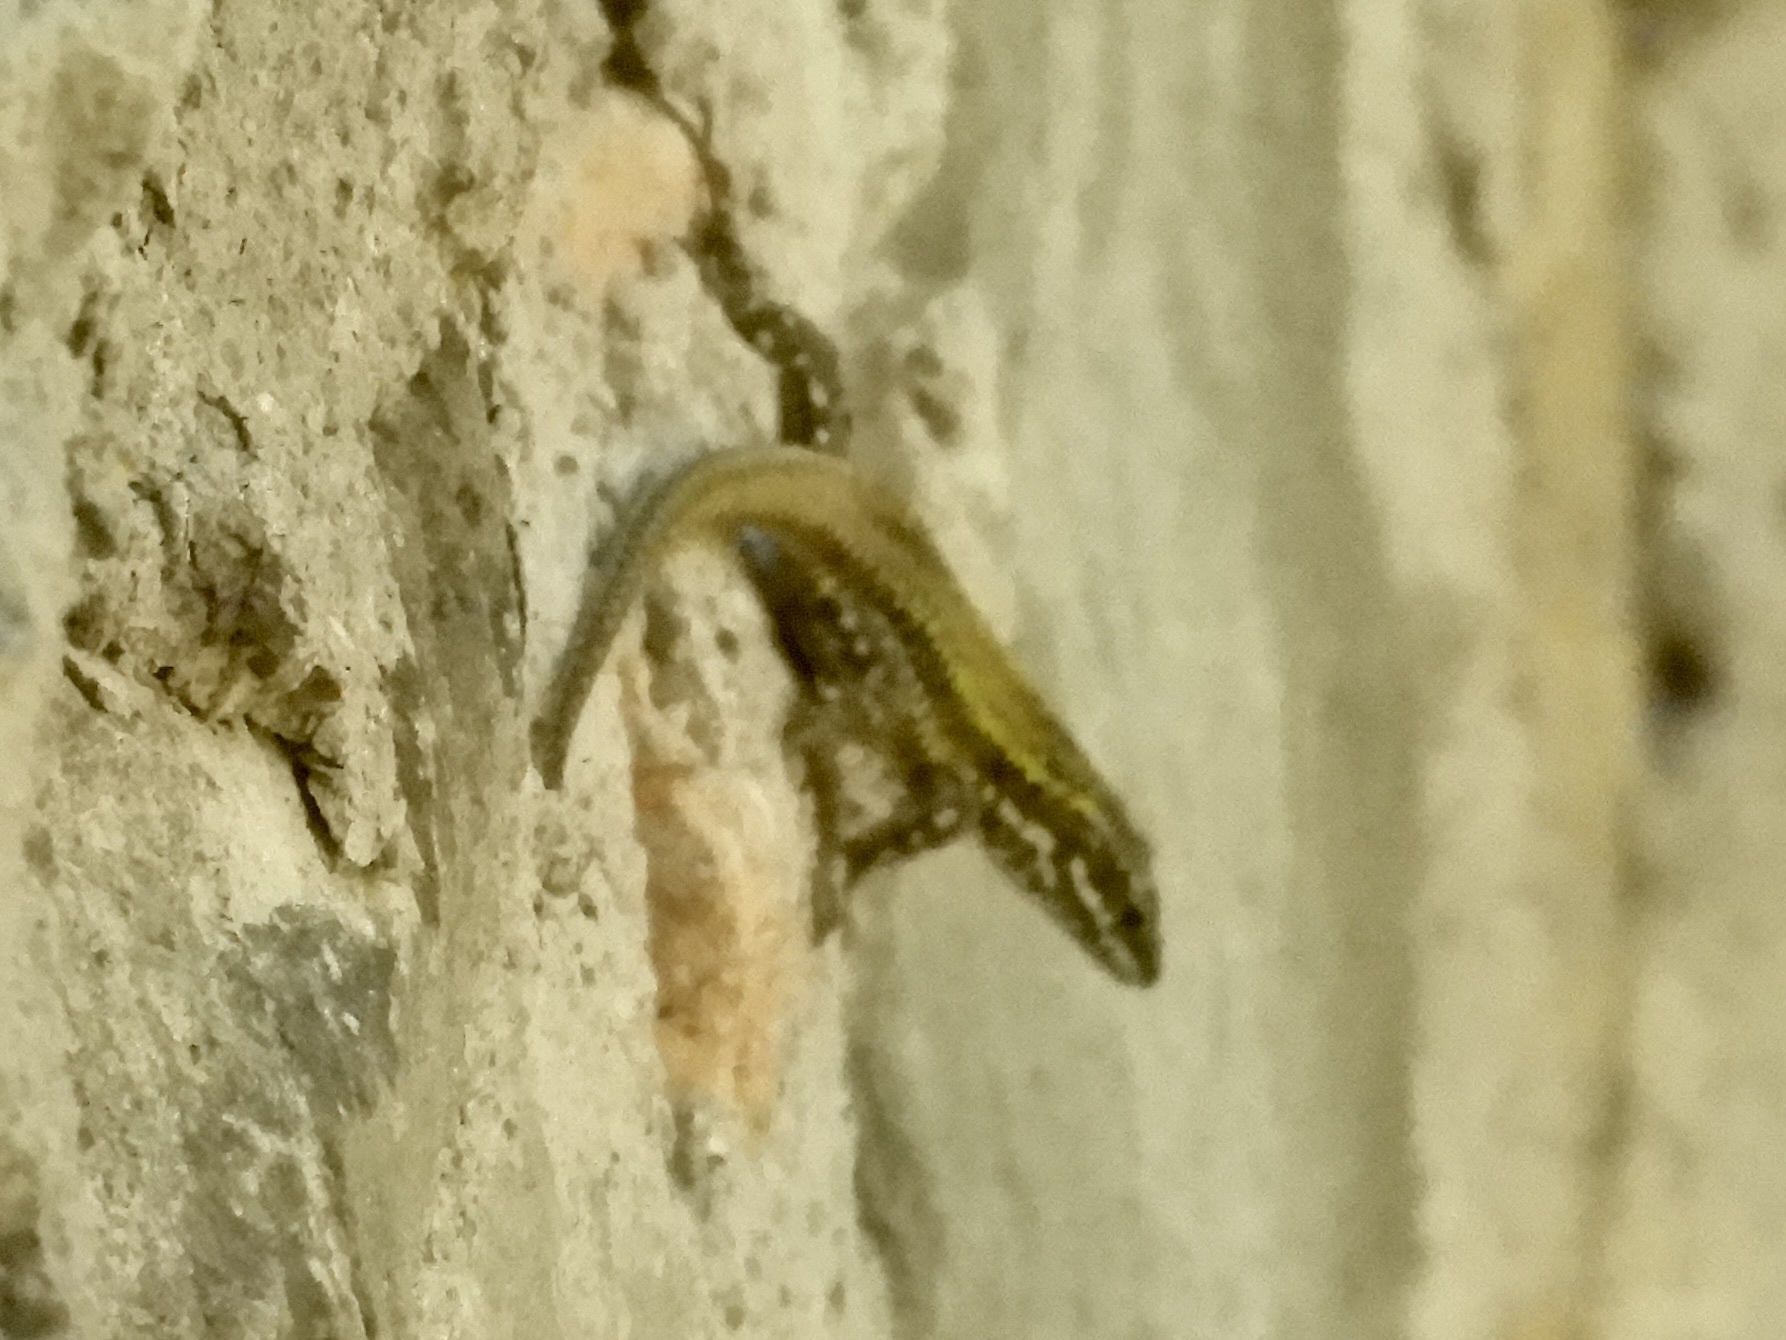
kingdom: Animalia
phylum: Chordata
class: Squamata
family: Lacertidae
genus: Podarcis
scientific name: Podarcis muralis
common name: Common wall lizard
